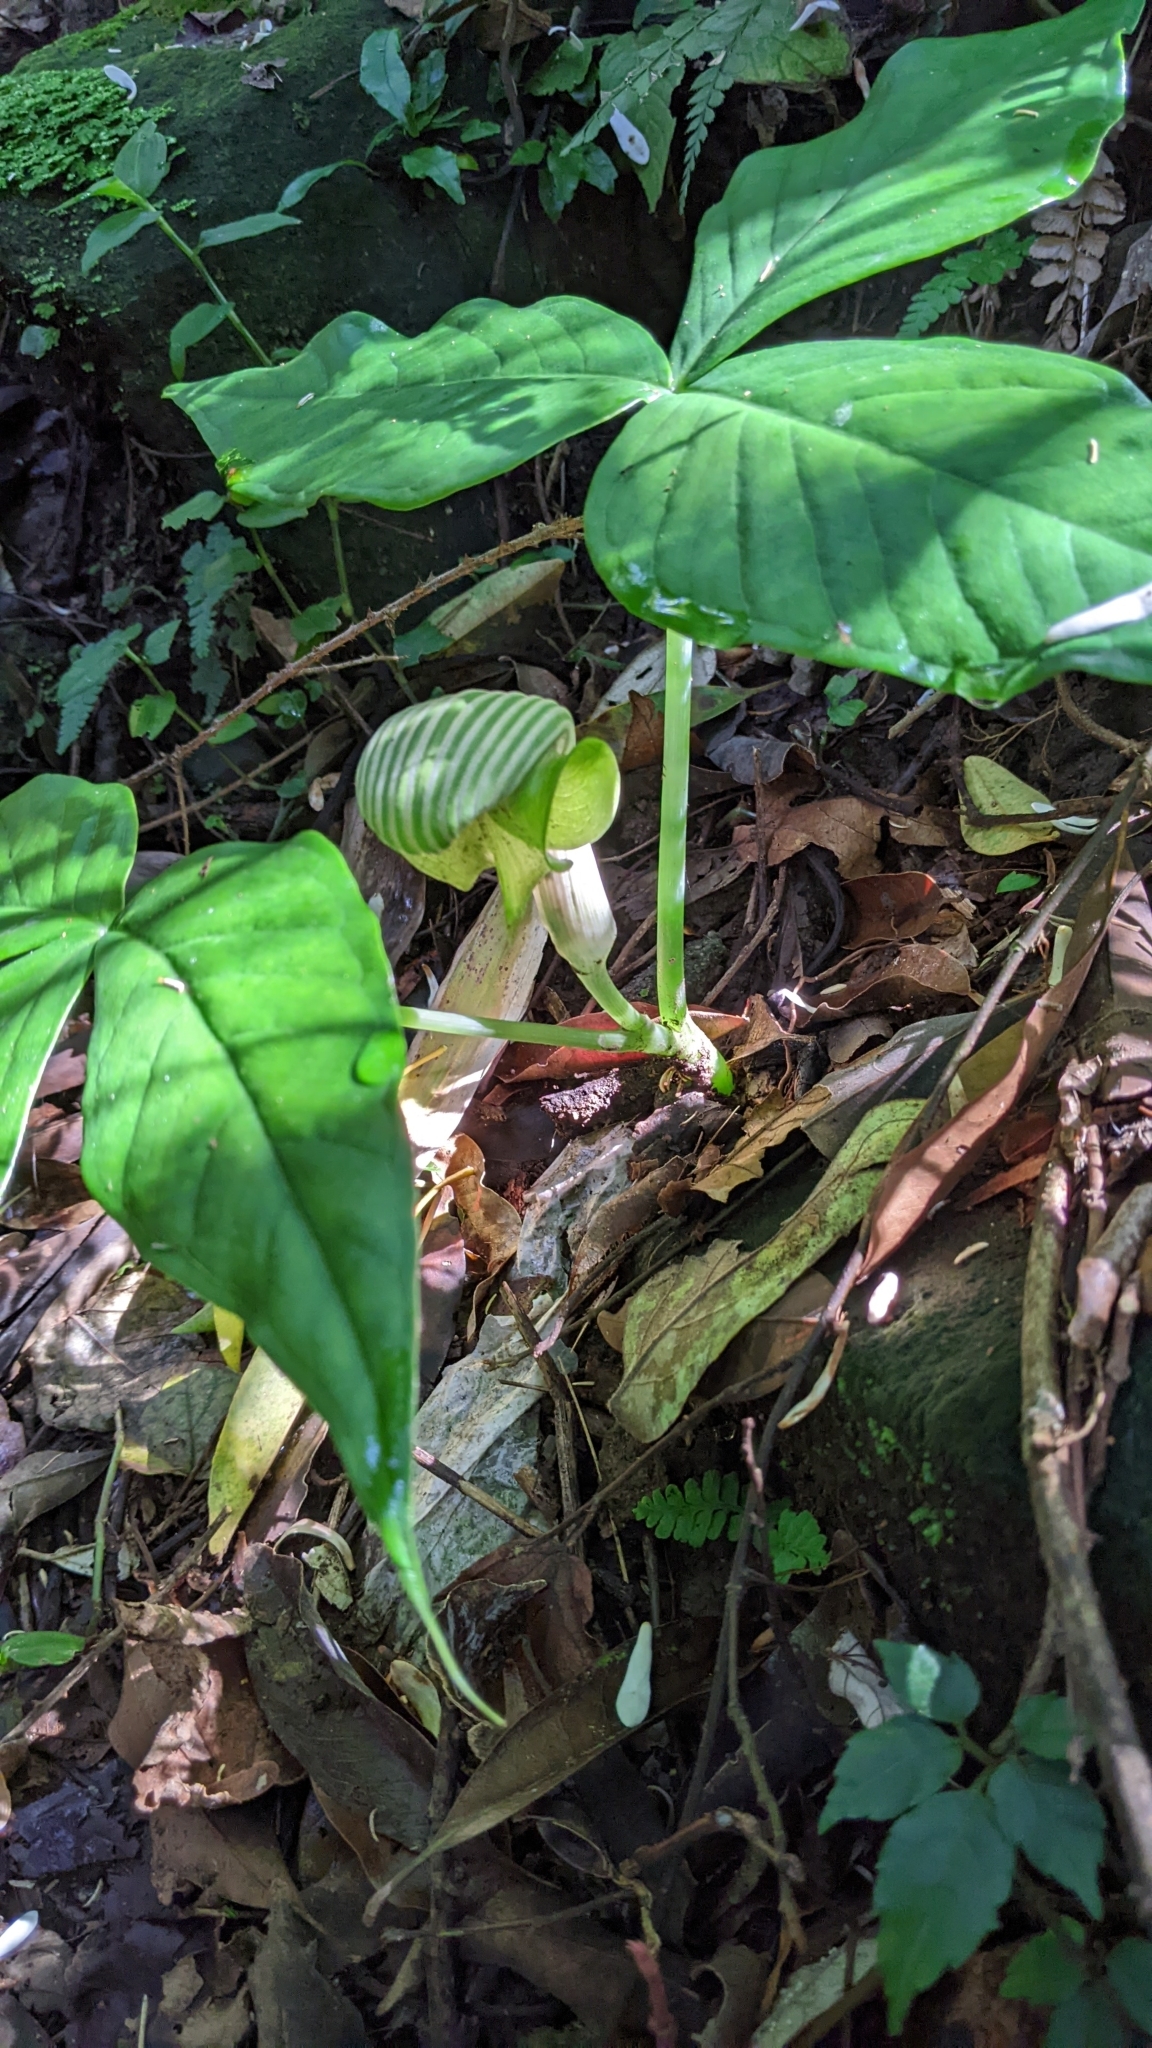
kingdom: Plantae
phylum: Tracheophyta
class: Liliopsida
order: Alismatales
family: Araceae
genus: Arisaema
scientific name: Arisaema ringens
